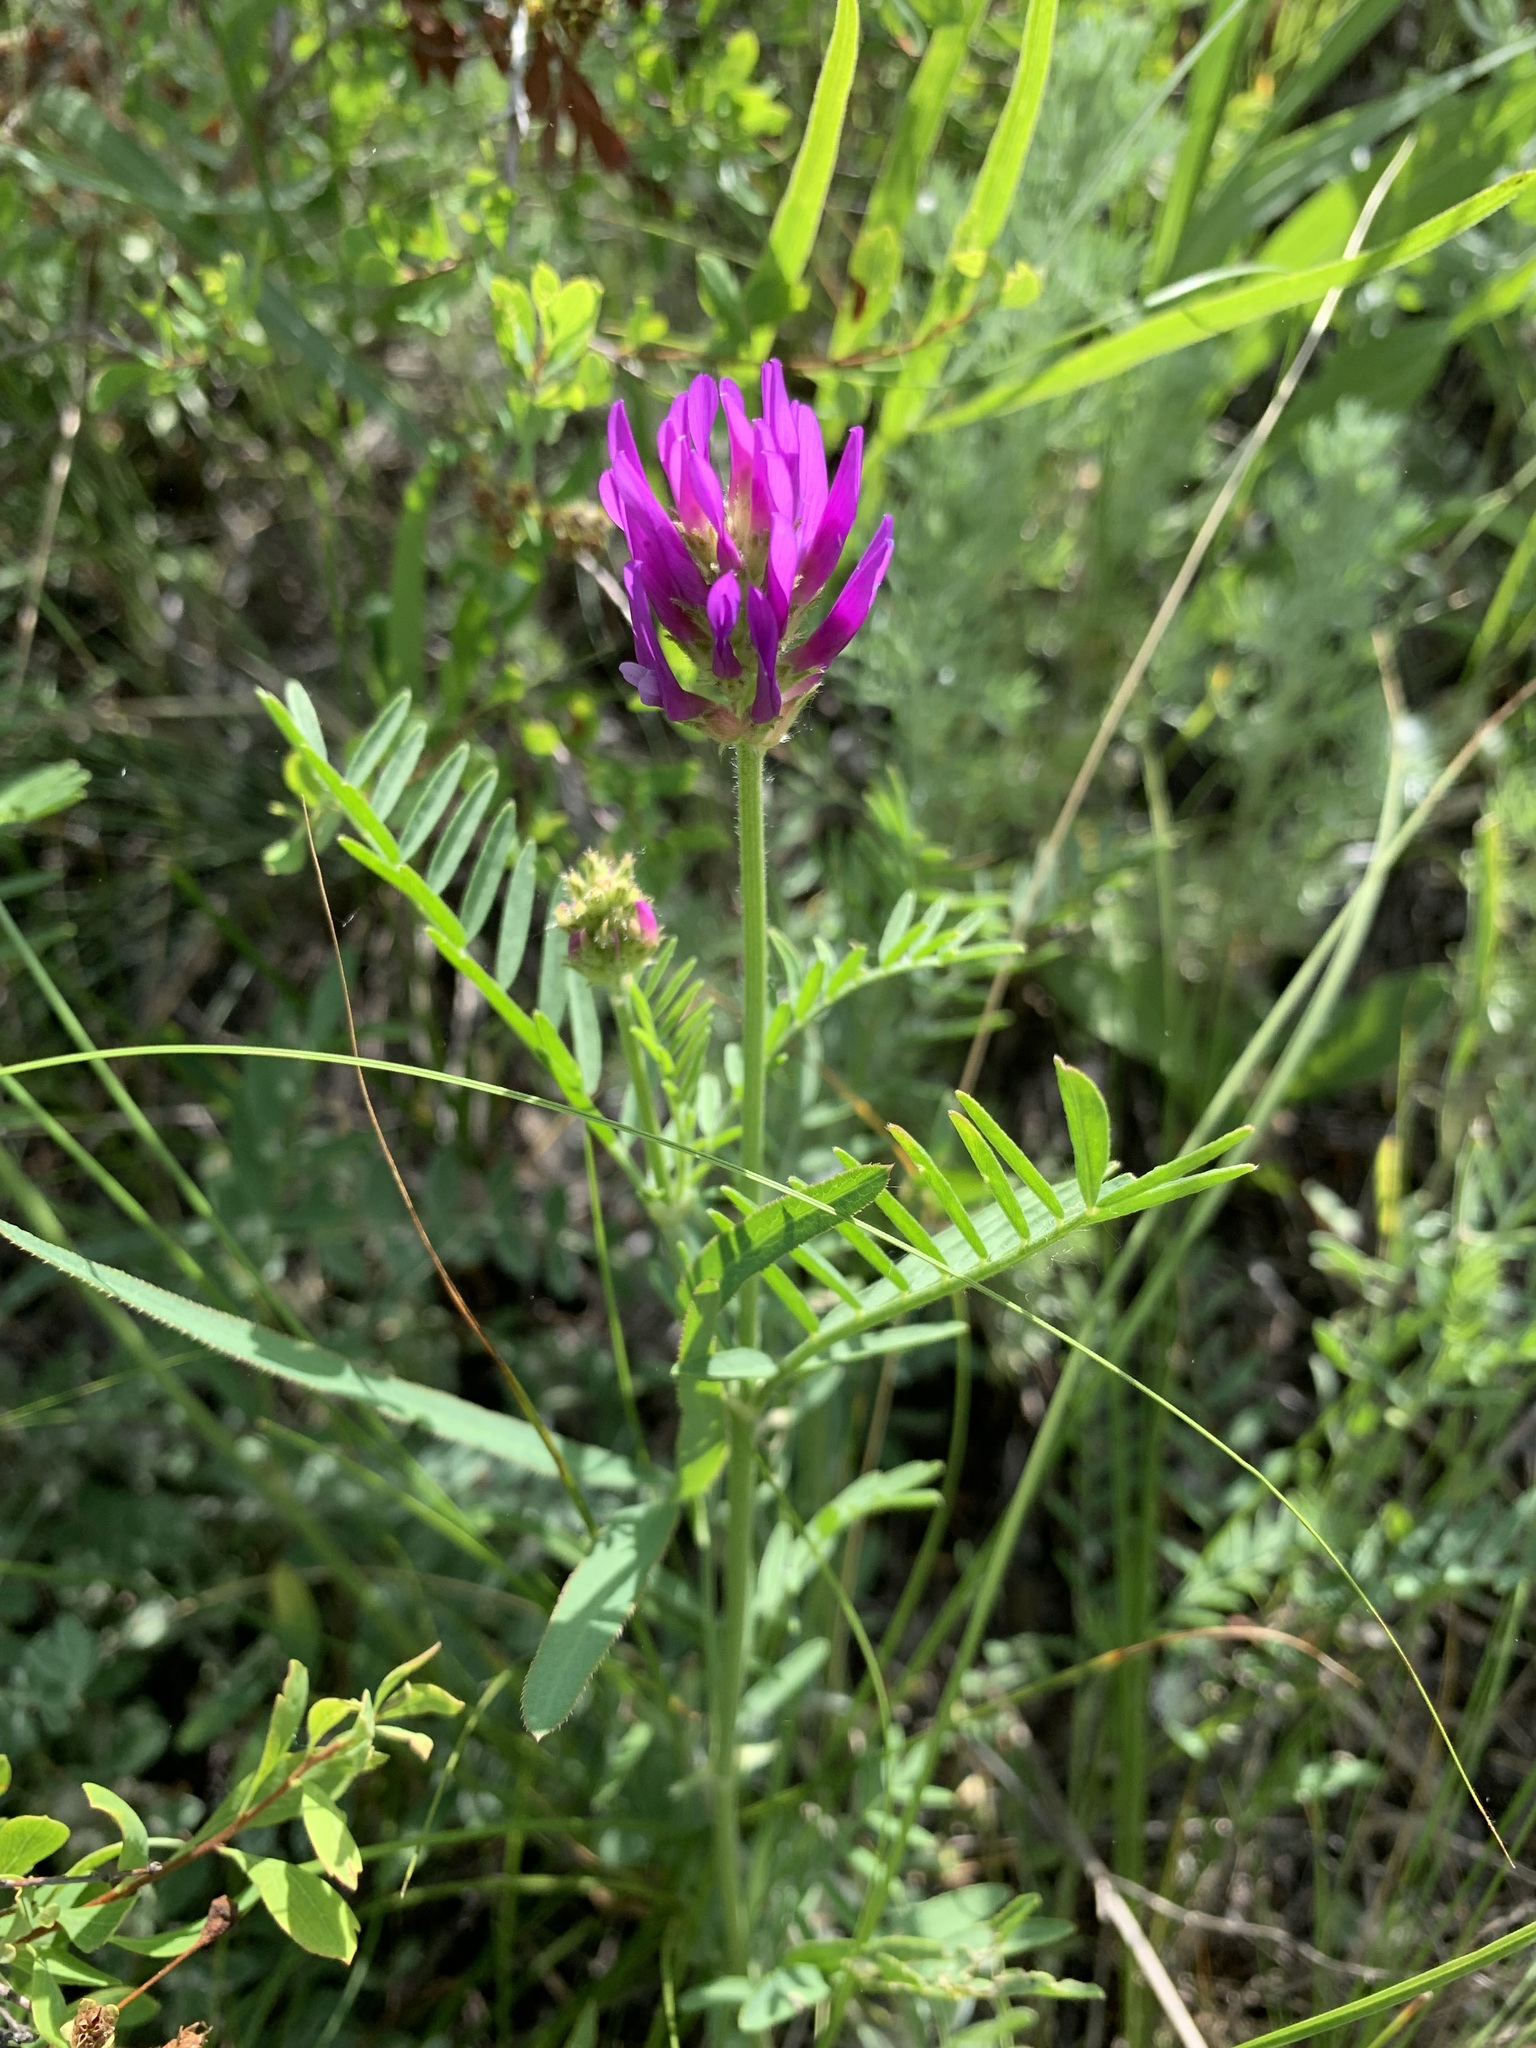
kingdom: Plantae
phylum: Tracheophyta
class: Magnoliopsida
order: Fabales
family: Fabaceae
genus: Astragalus
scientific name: Astragalus onobrychis
